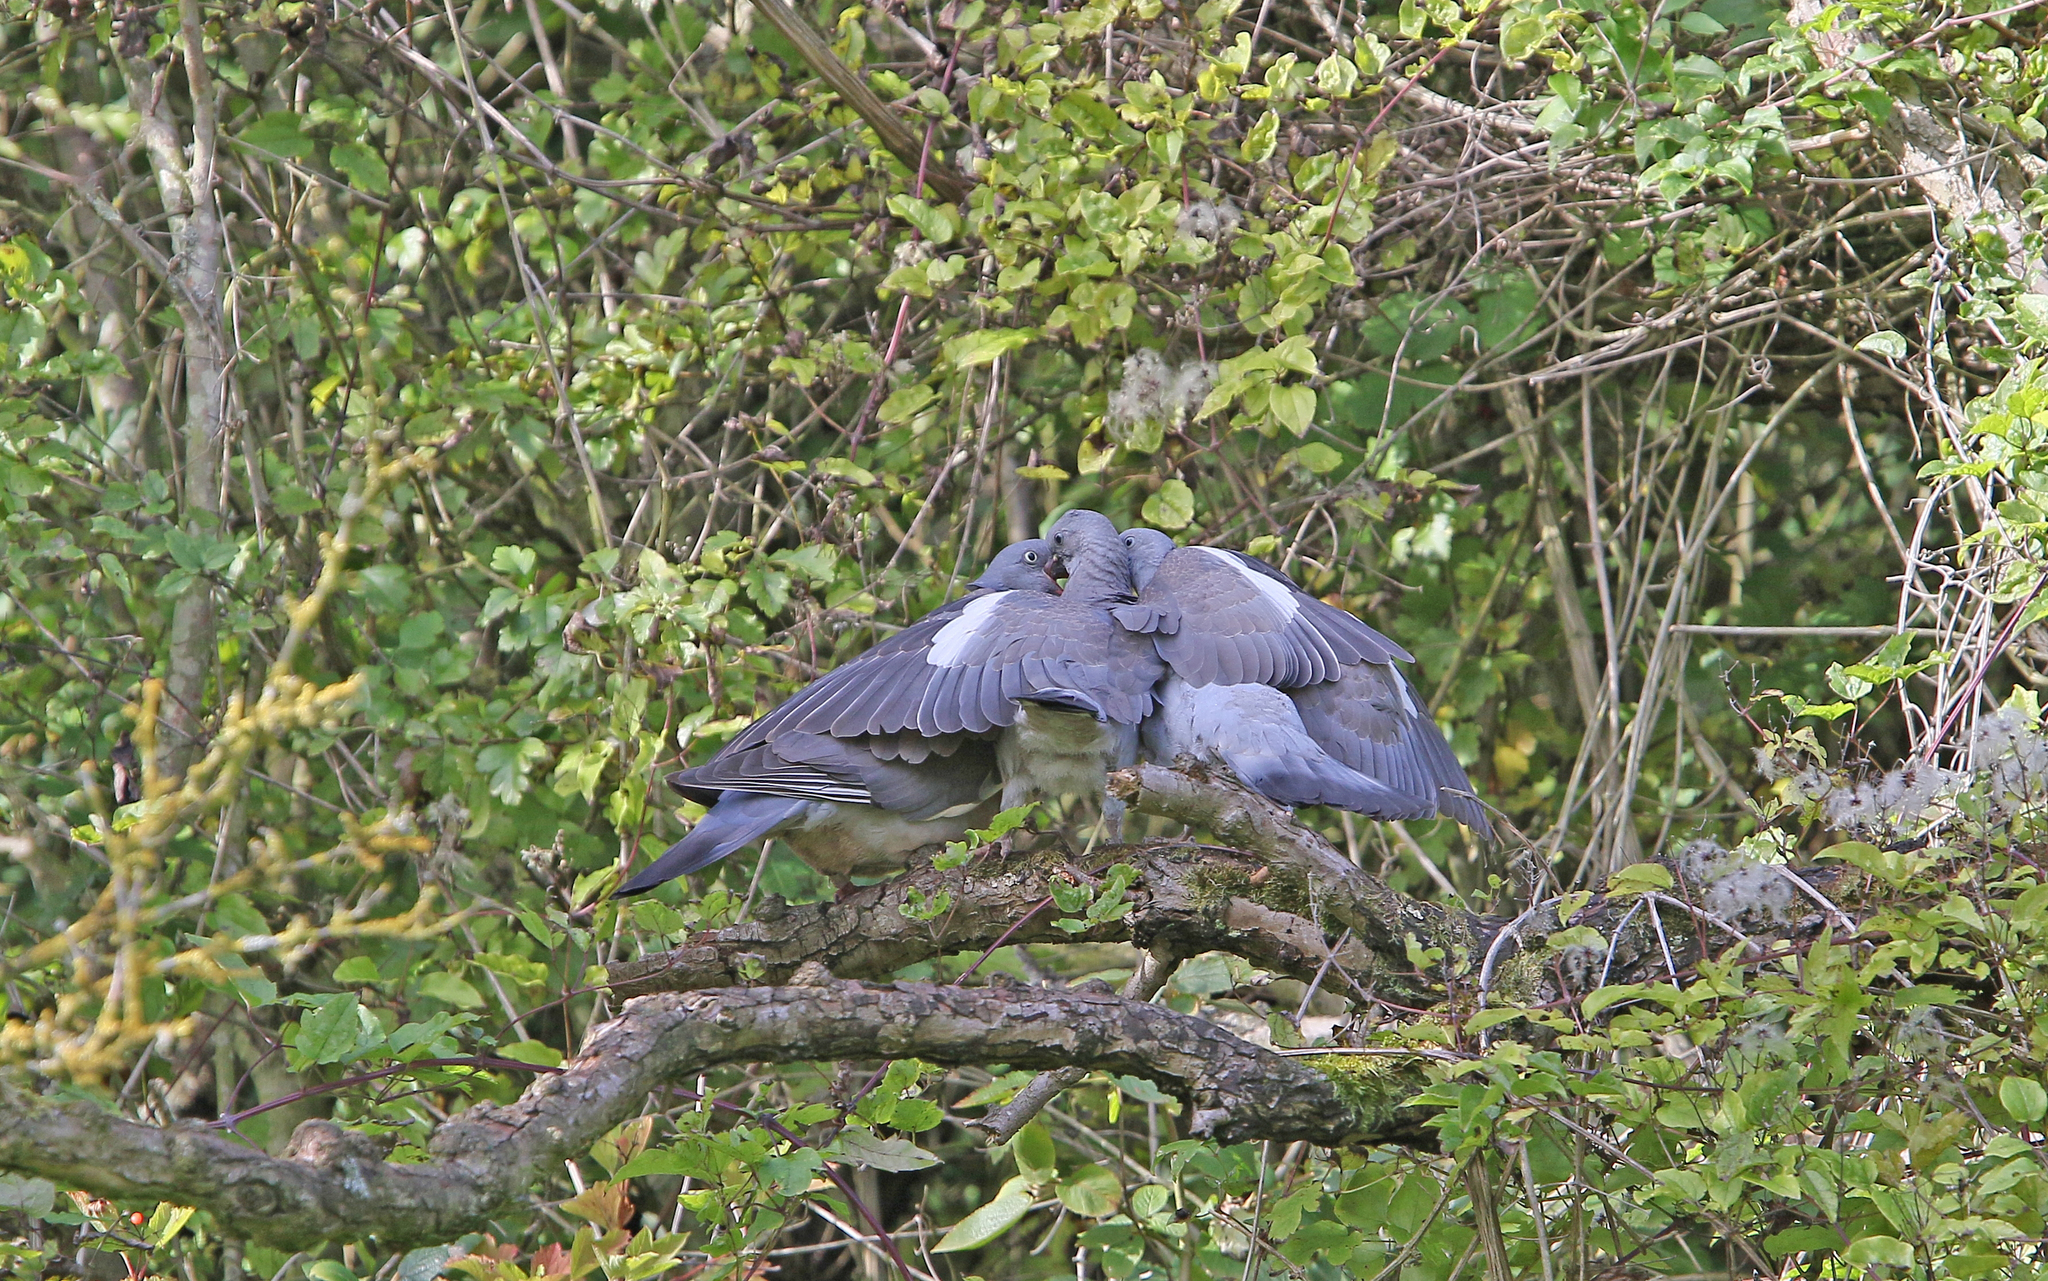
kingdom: Animalia
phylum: Chordata
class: Aves
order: Columbiformes
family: Columbidae
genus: Columba
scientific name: Columba palumbus
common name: Common wood pigeon
